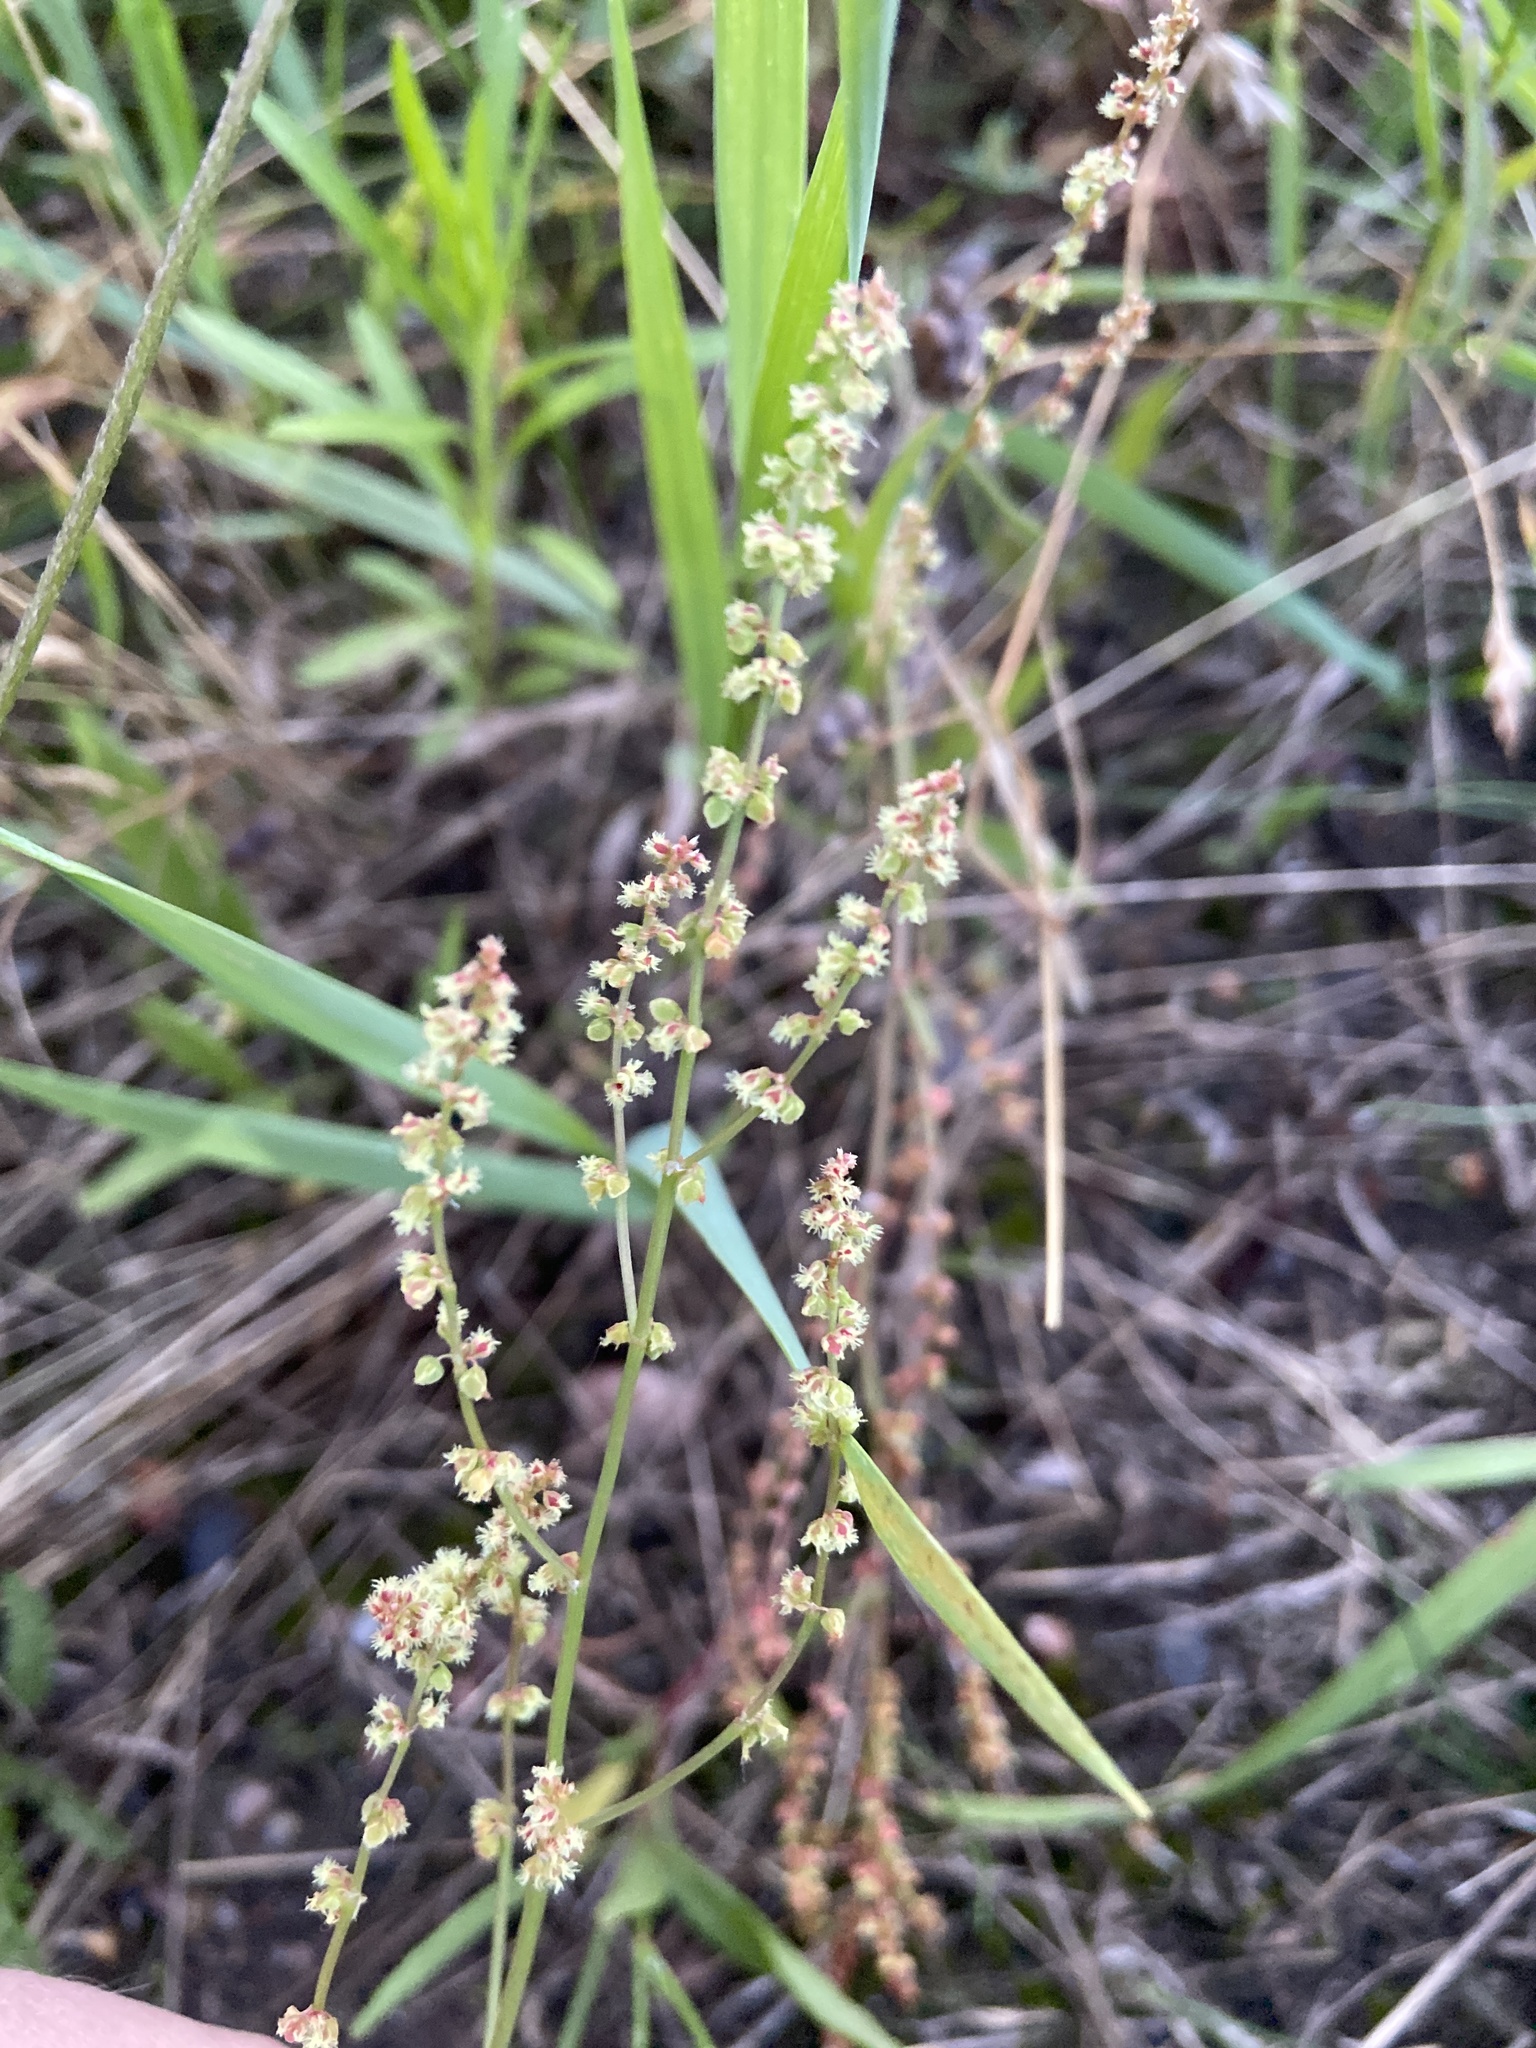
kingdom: Plantae
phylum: Tracheophyta
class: Magnoliopsida
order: Caryophyllales
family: Polygonaceae
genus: Rumex
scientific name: Rumex acetosella
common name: Common sheep sorrel
